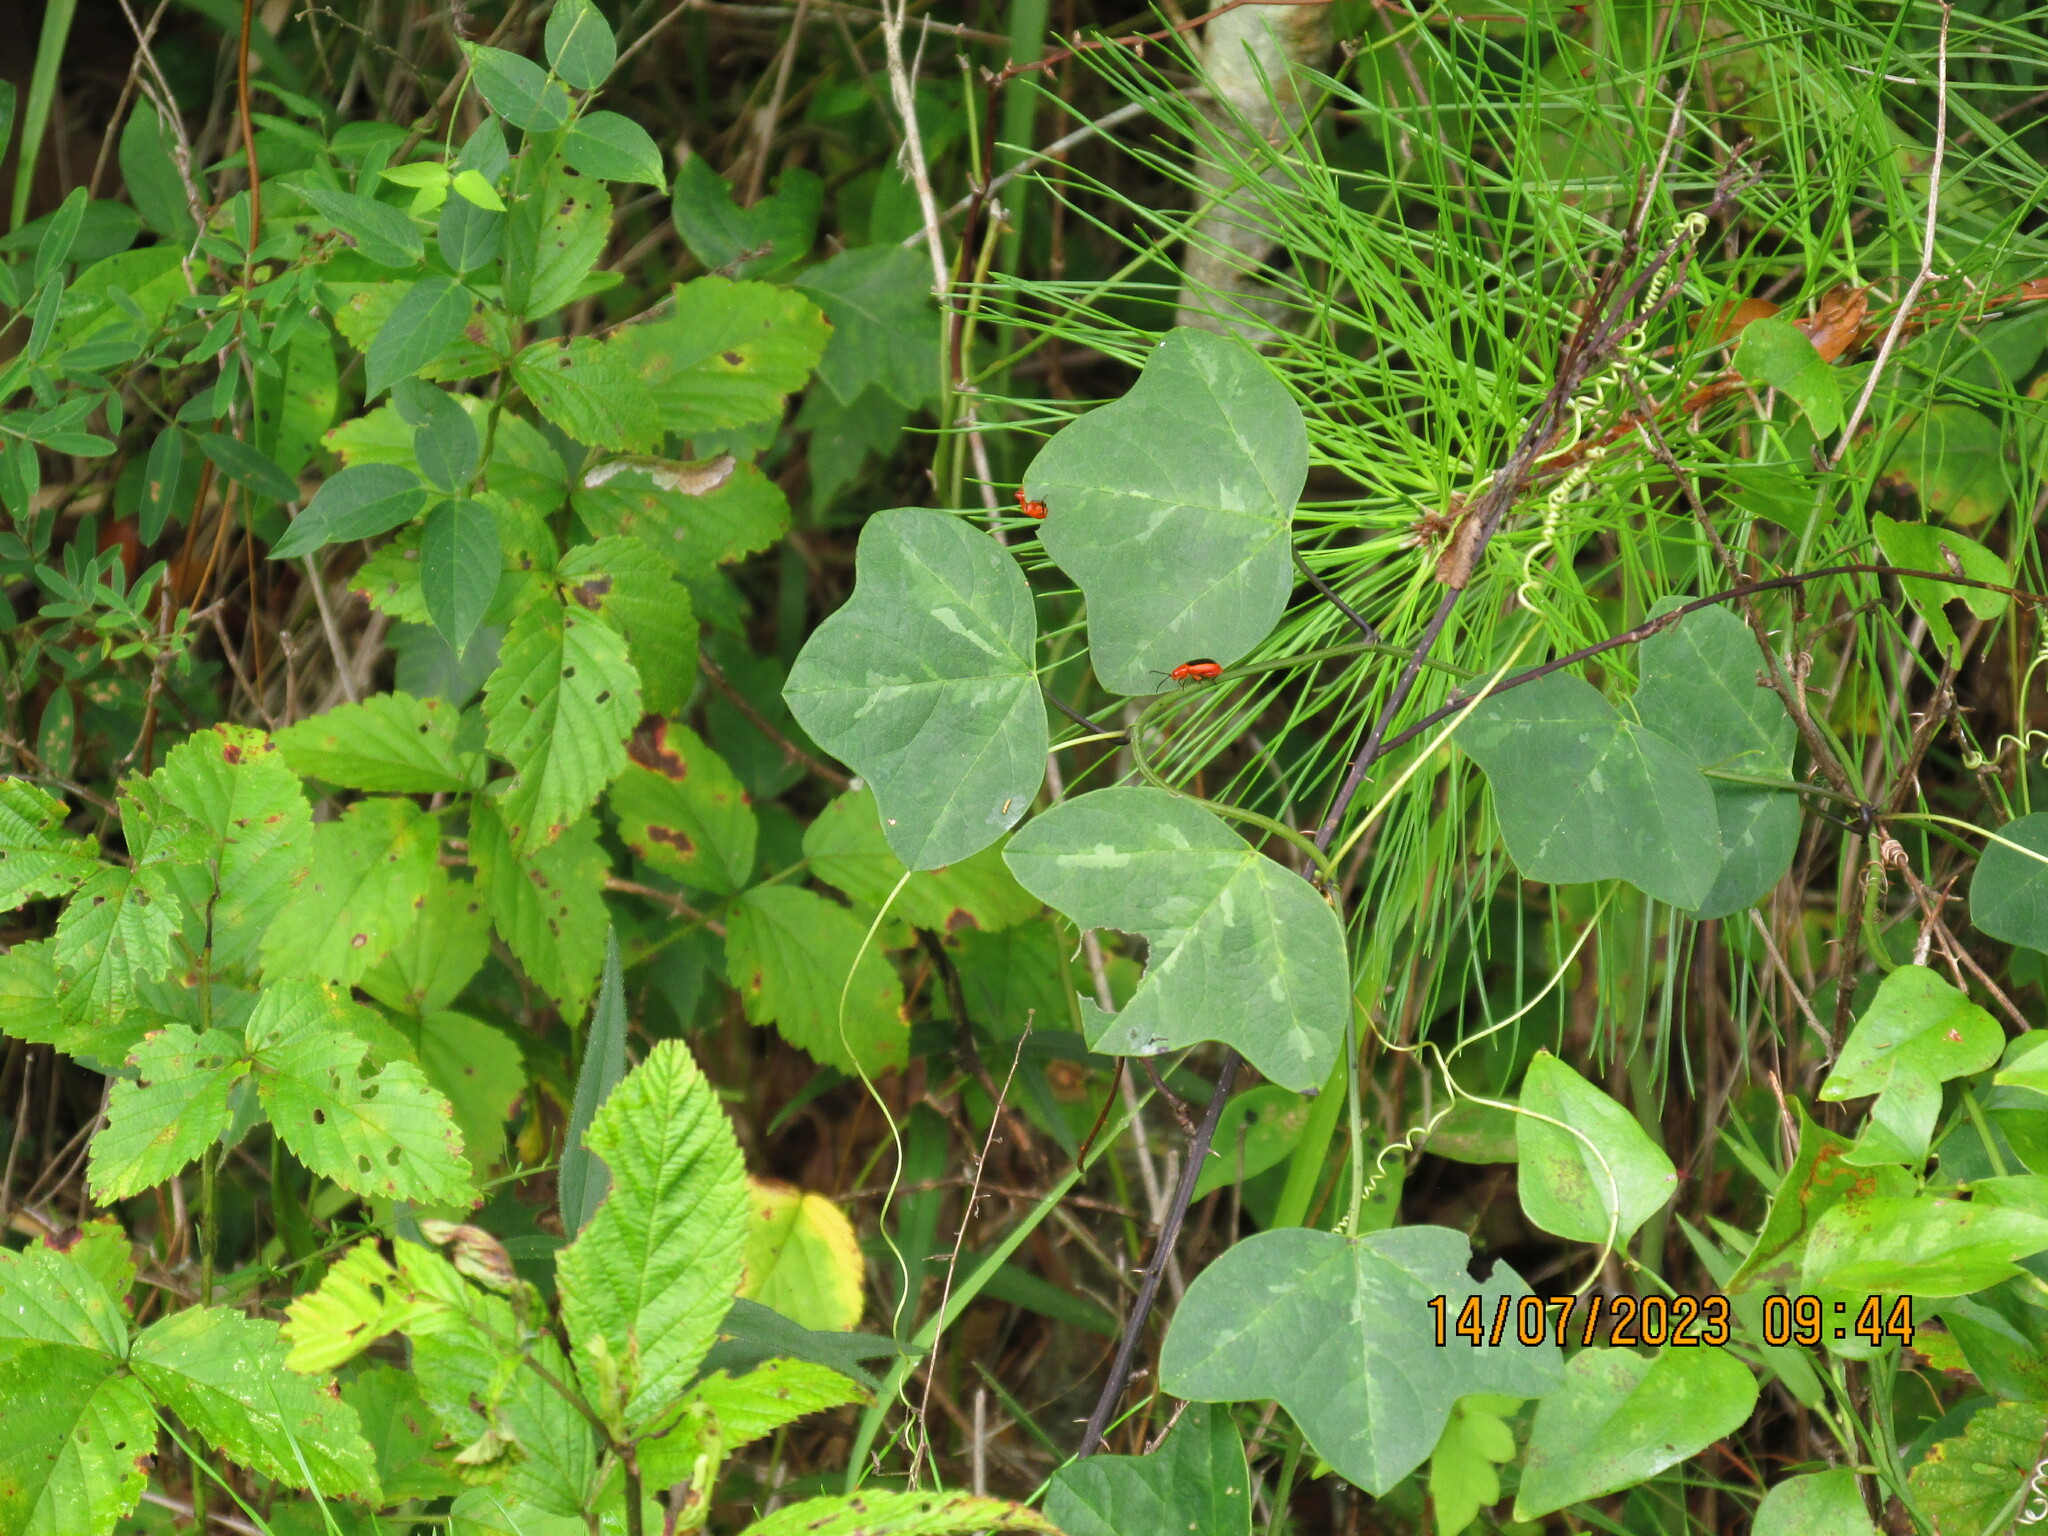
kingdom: Plantae
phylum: Tracheophyta
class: Magnoliopsida
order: Malpighiales
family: Passifloraceae
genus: Passiflora
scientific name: Passiflora lutea
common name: Yellow passionflower
